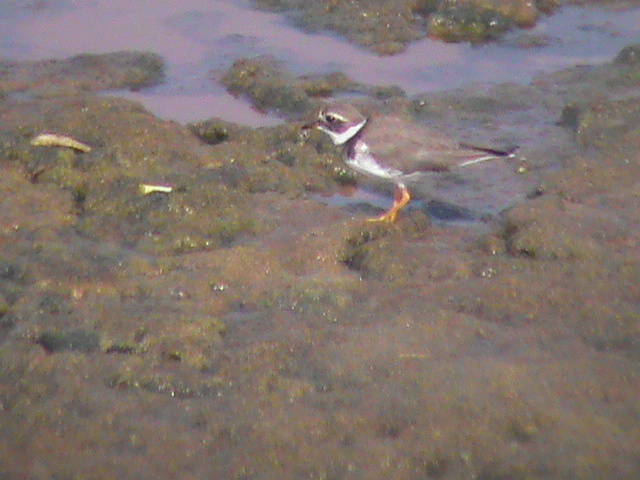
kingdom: Animalia
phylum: Chordata
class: Aves
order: Charadriiformes
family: Charadriidae
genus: Charadrius
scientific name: Charadrius hiaticula
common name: Common ringed plover
